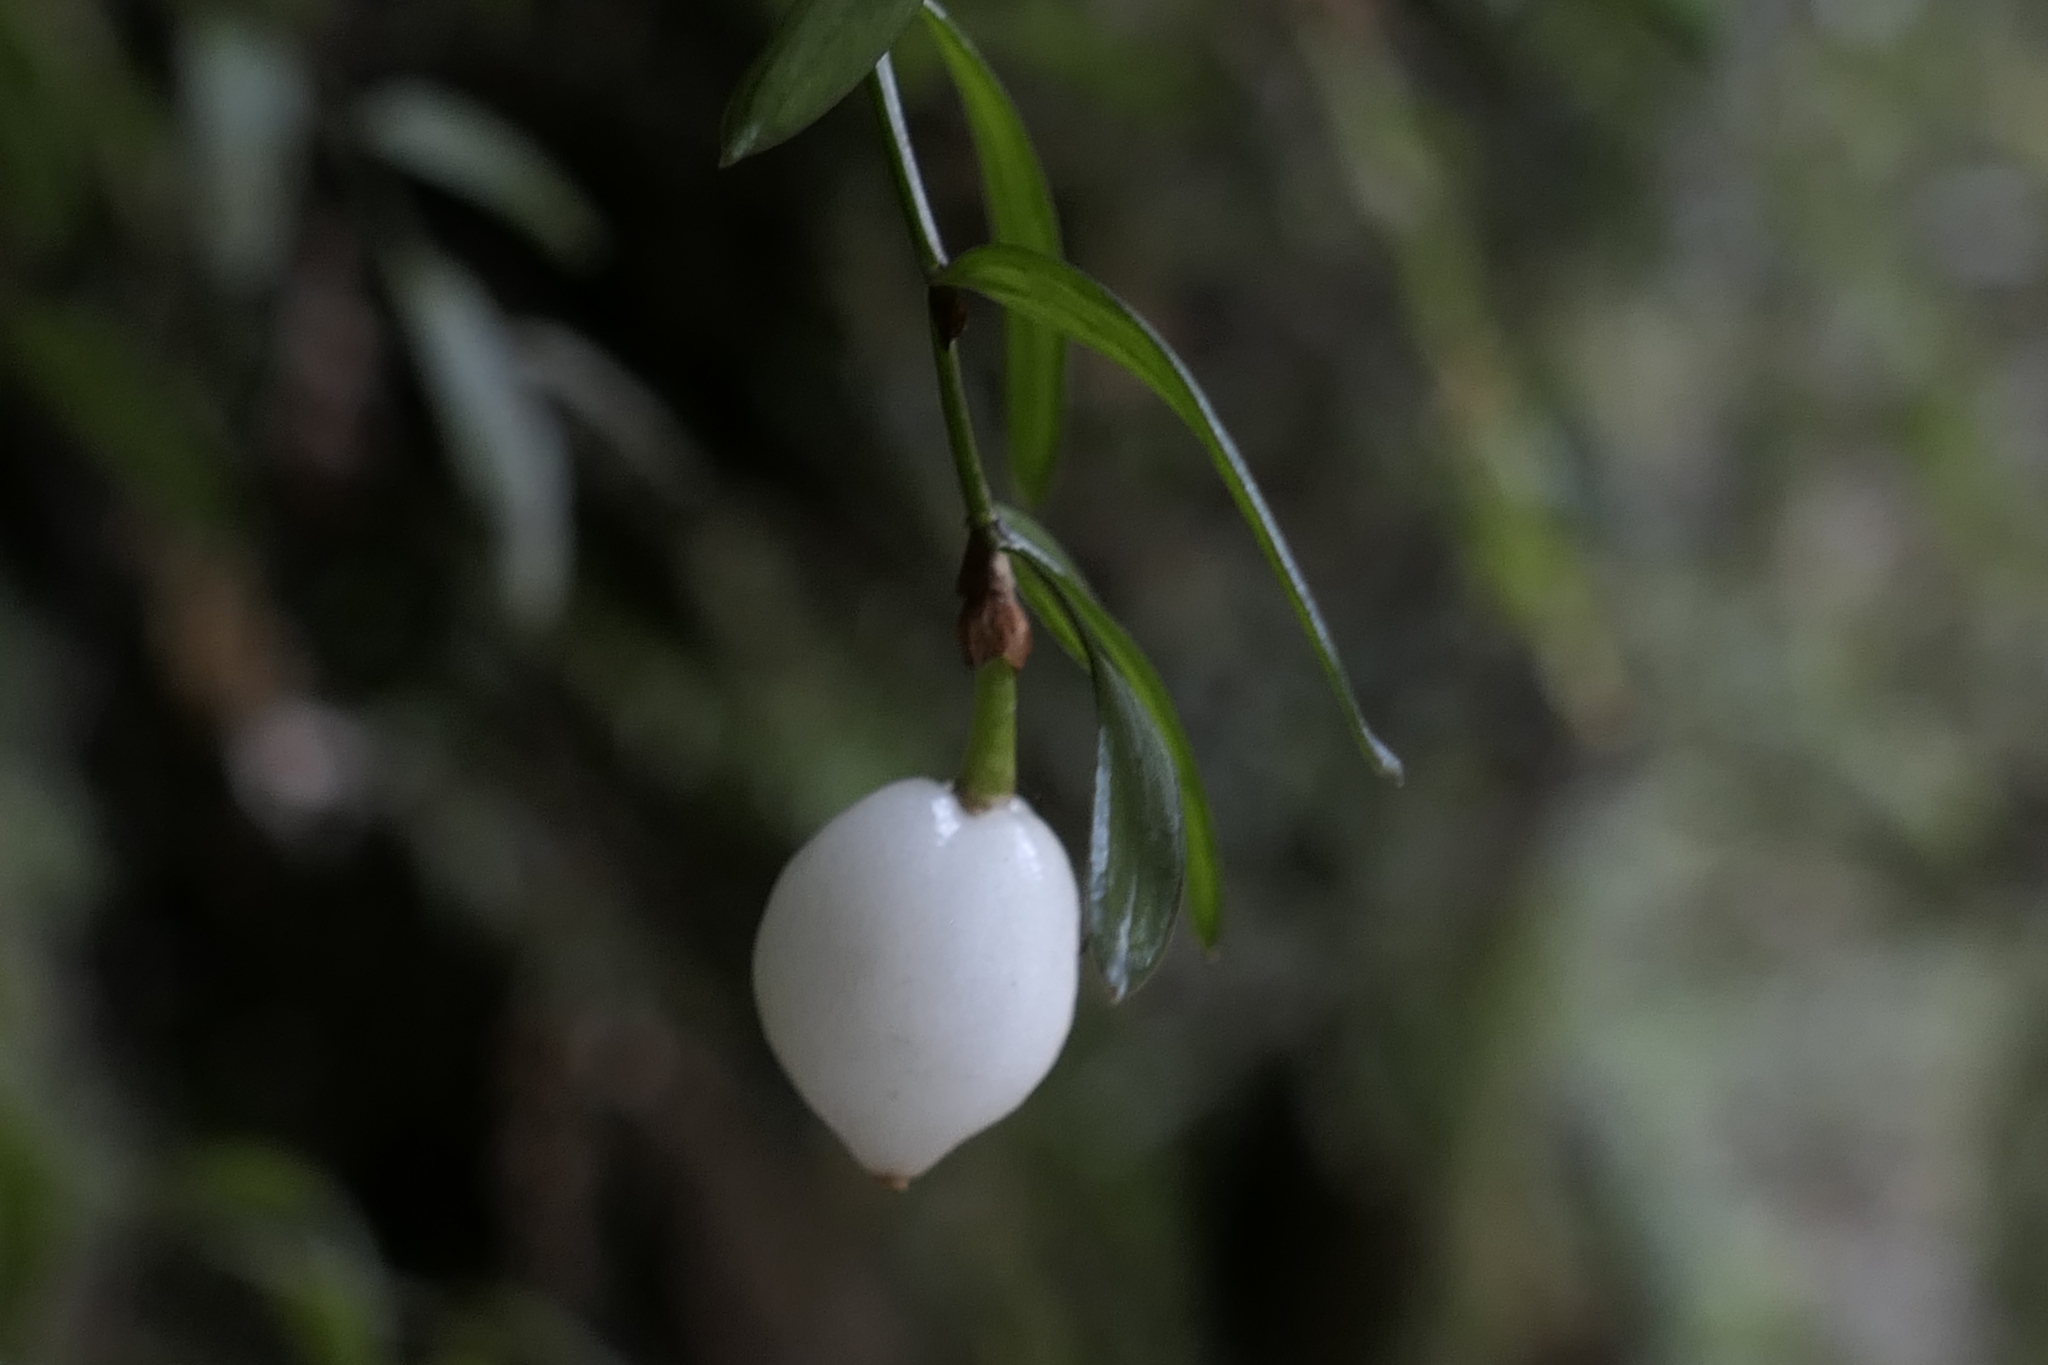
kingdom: Plantae
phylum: Tracheophyta
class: Liliopsida
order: Liliales
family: Alstroemeriaceae
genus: Luzuriaga
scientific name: Luzuriaga parviflora
